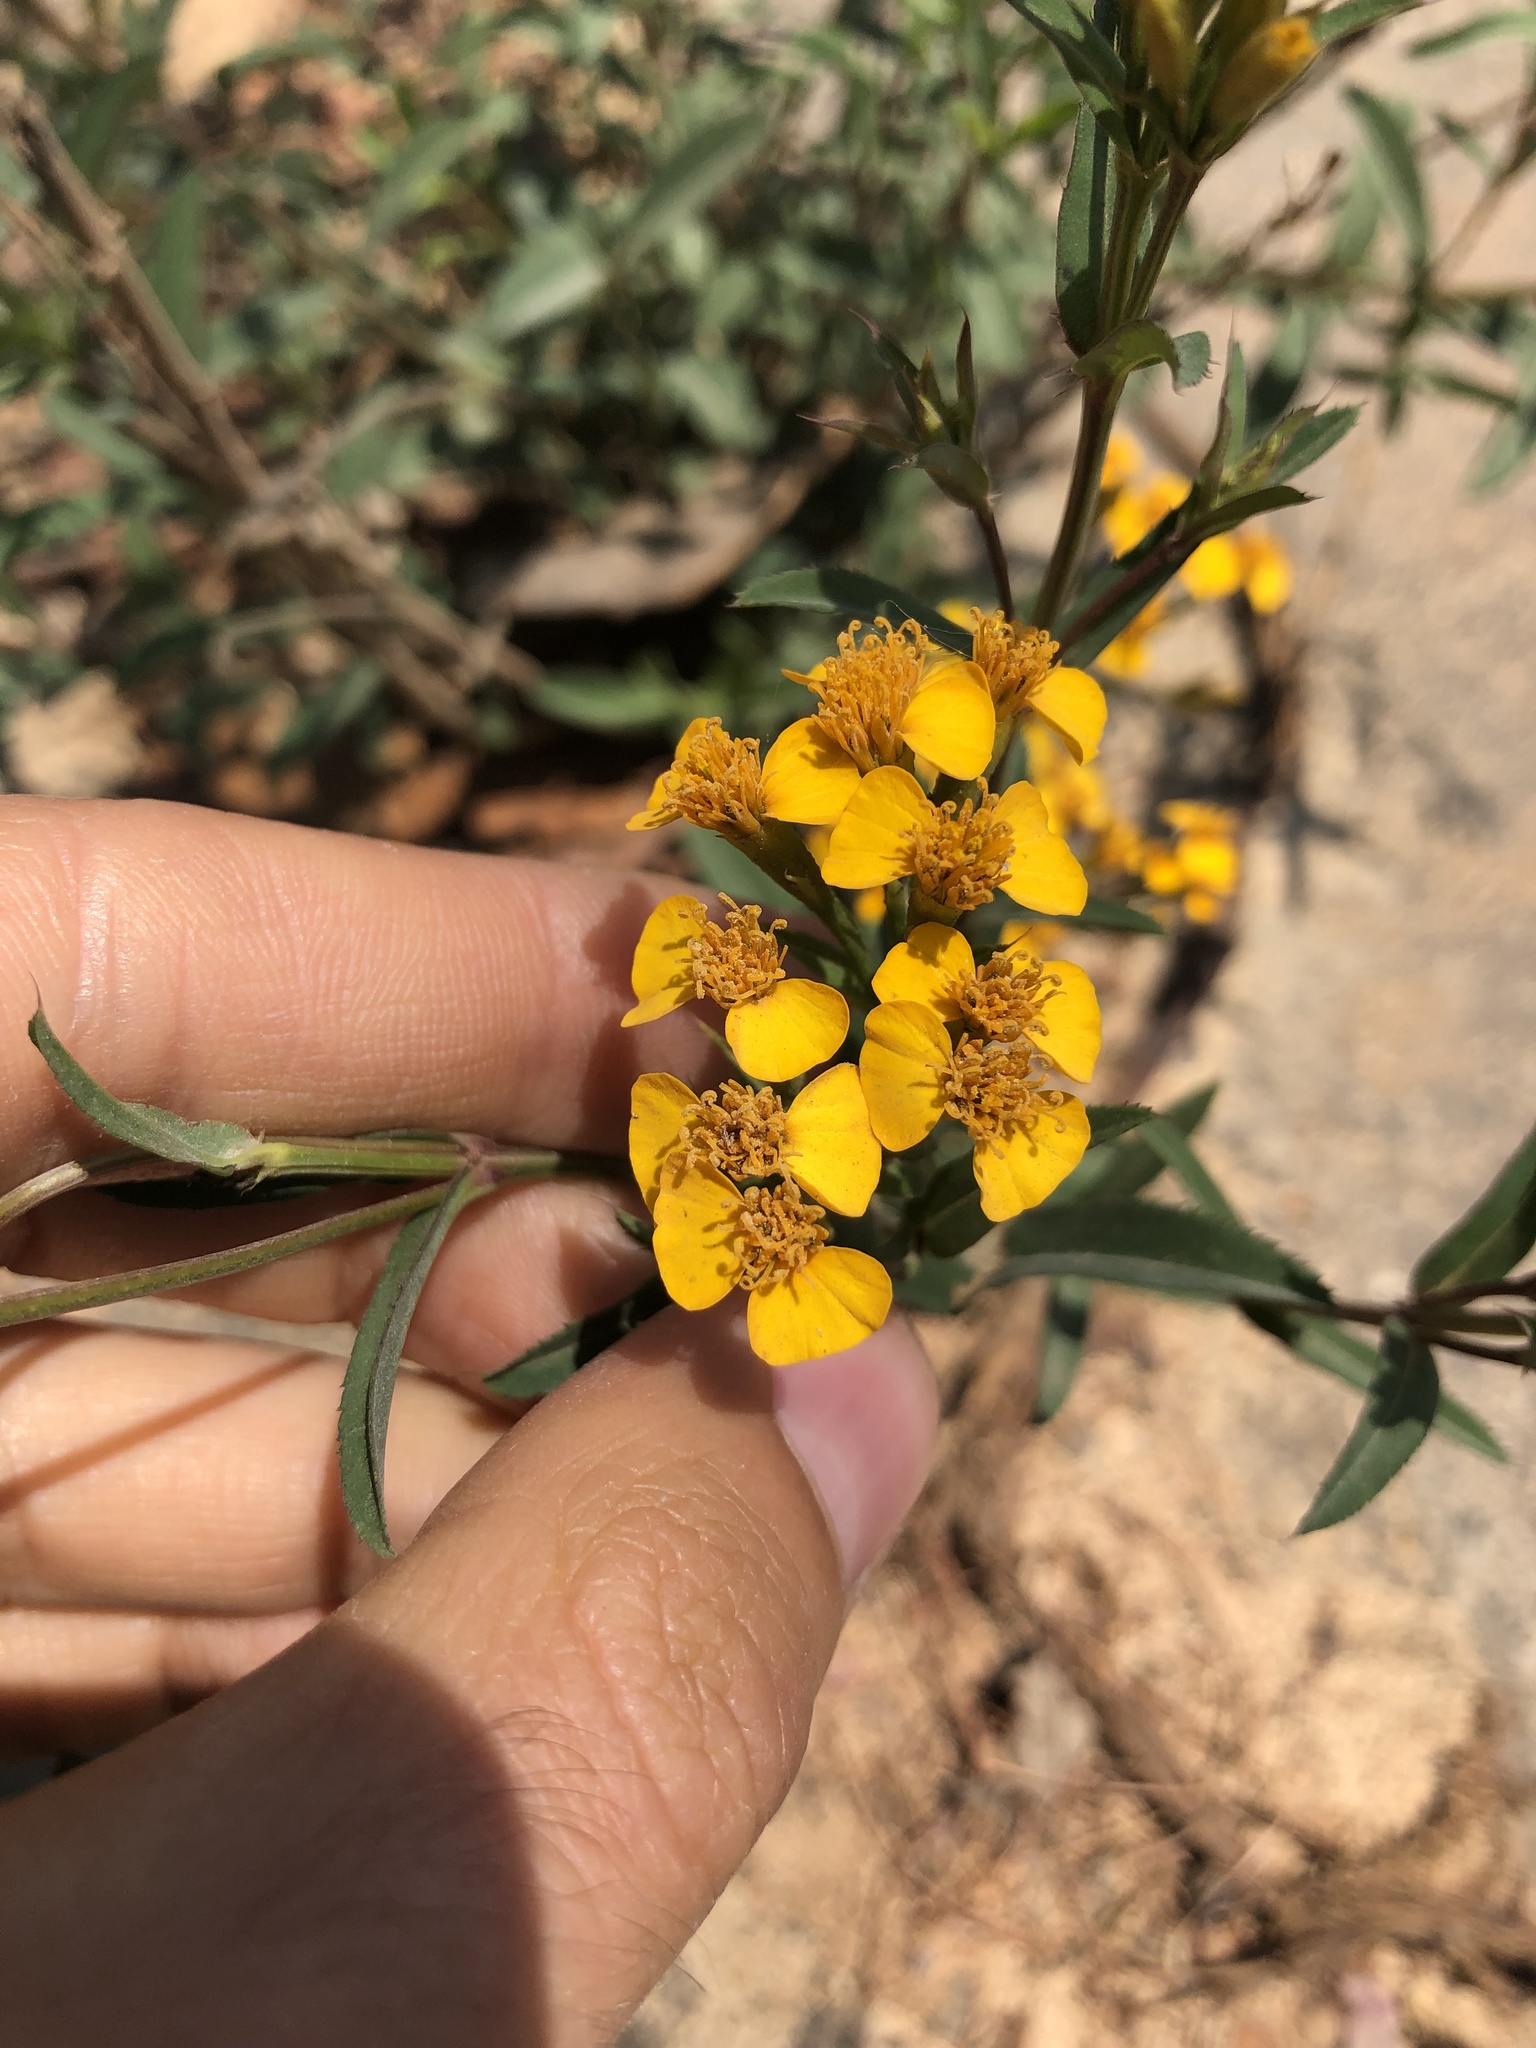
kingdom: Plantae
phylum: Tracheophyta
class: Magnoliopsida
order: Asterales
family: Asteraceae
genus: Tagetes
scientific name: Tagetes lucida
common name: Sweetscented marigold
